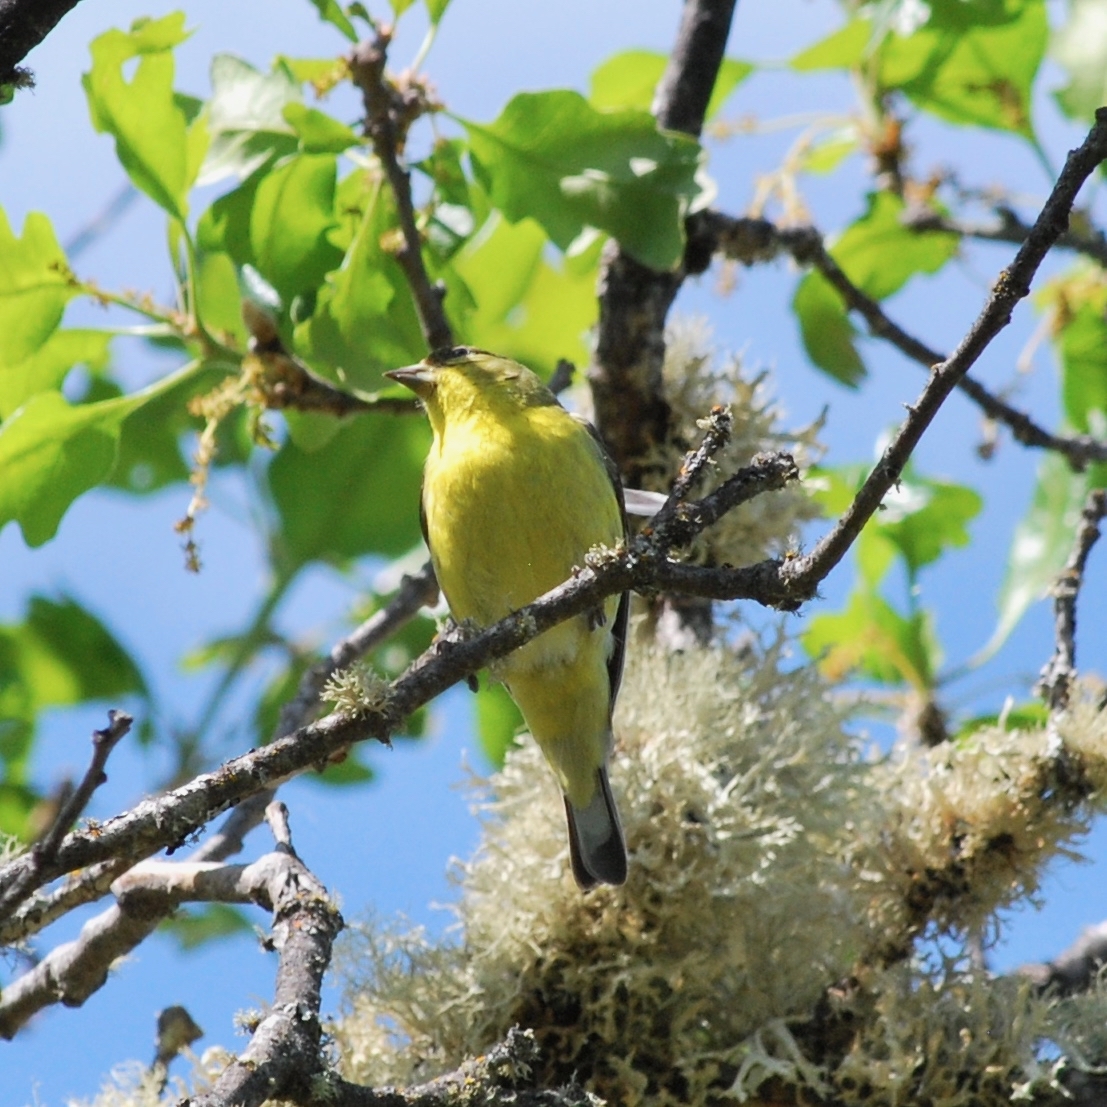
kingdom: Animalia
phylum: Chordata
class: Aves
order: Passeriformes
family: Fringillidae
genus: Spinus
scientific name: Spinus psaltria
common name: Lesser goldfinch
